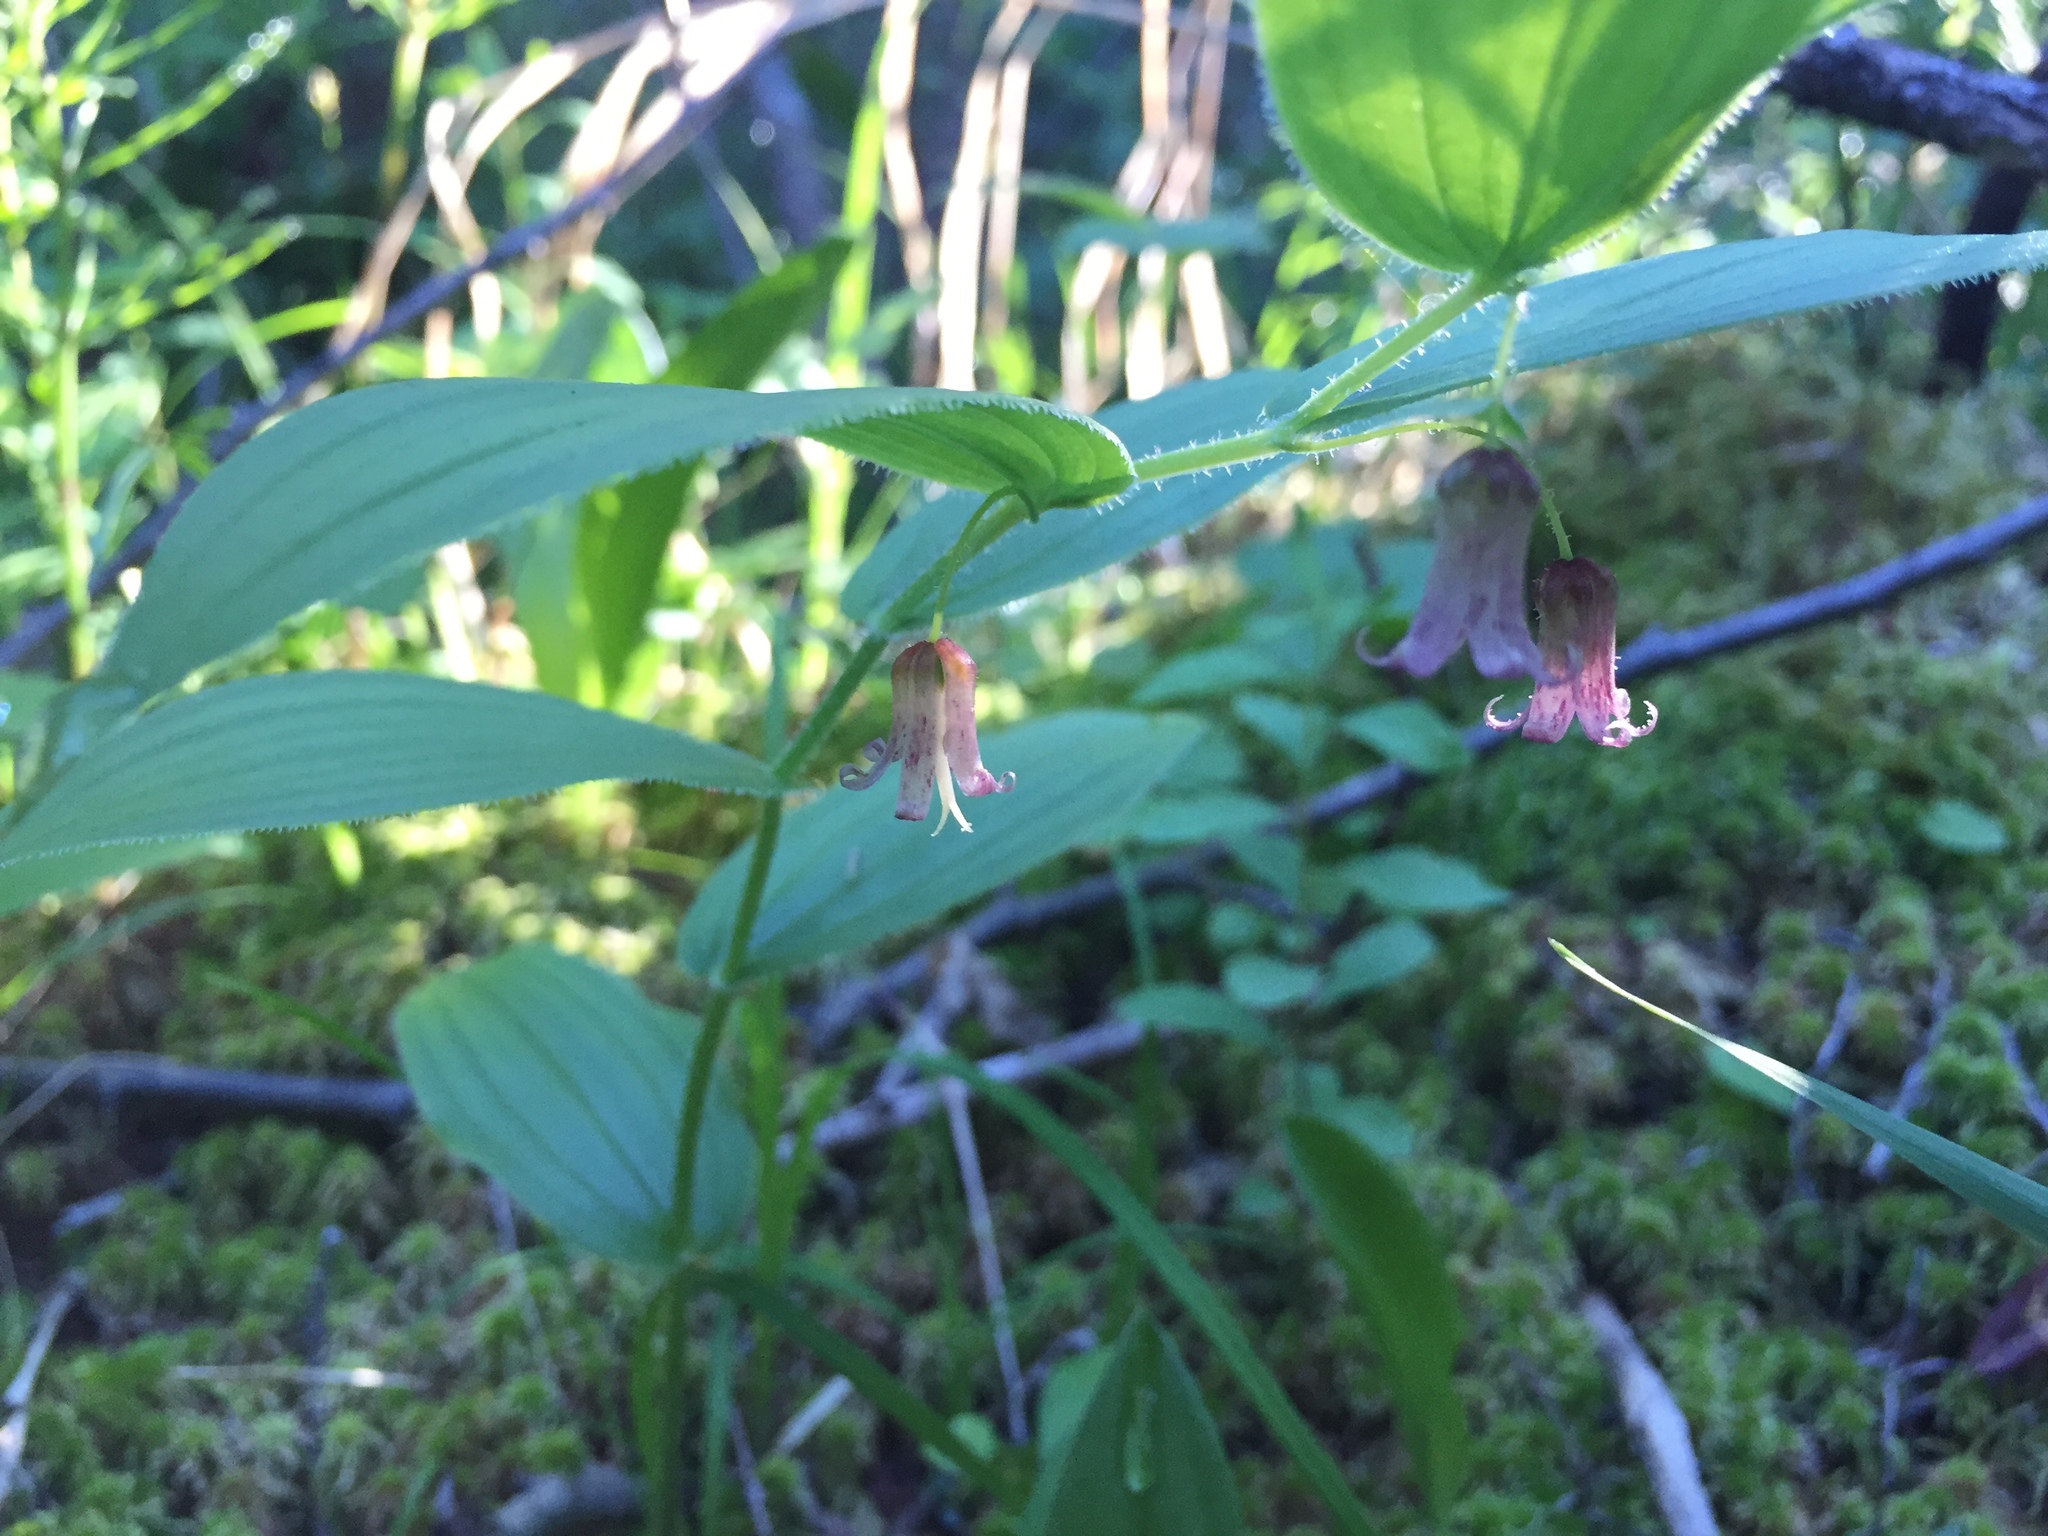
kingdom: Plantae
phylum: Tracheophyta
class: Liliopsida
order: Liliales
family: Liliaceae
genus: Streptopus
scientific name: Streptopus lanceolatus
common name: Rose mandarin
